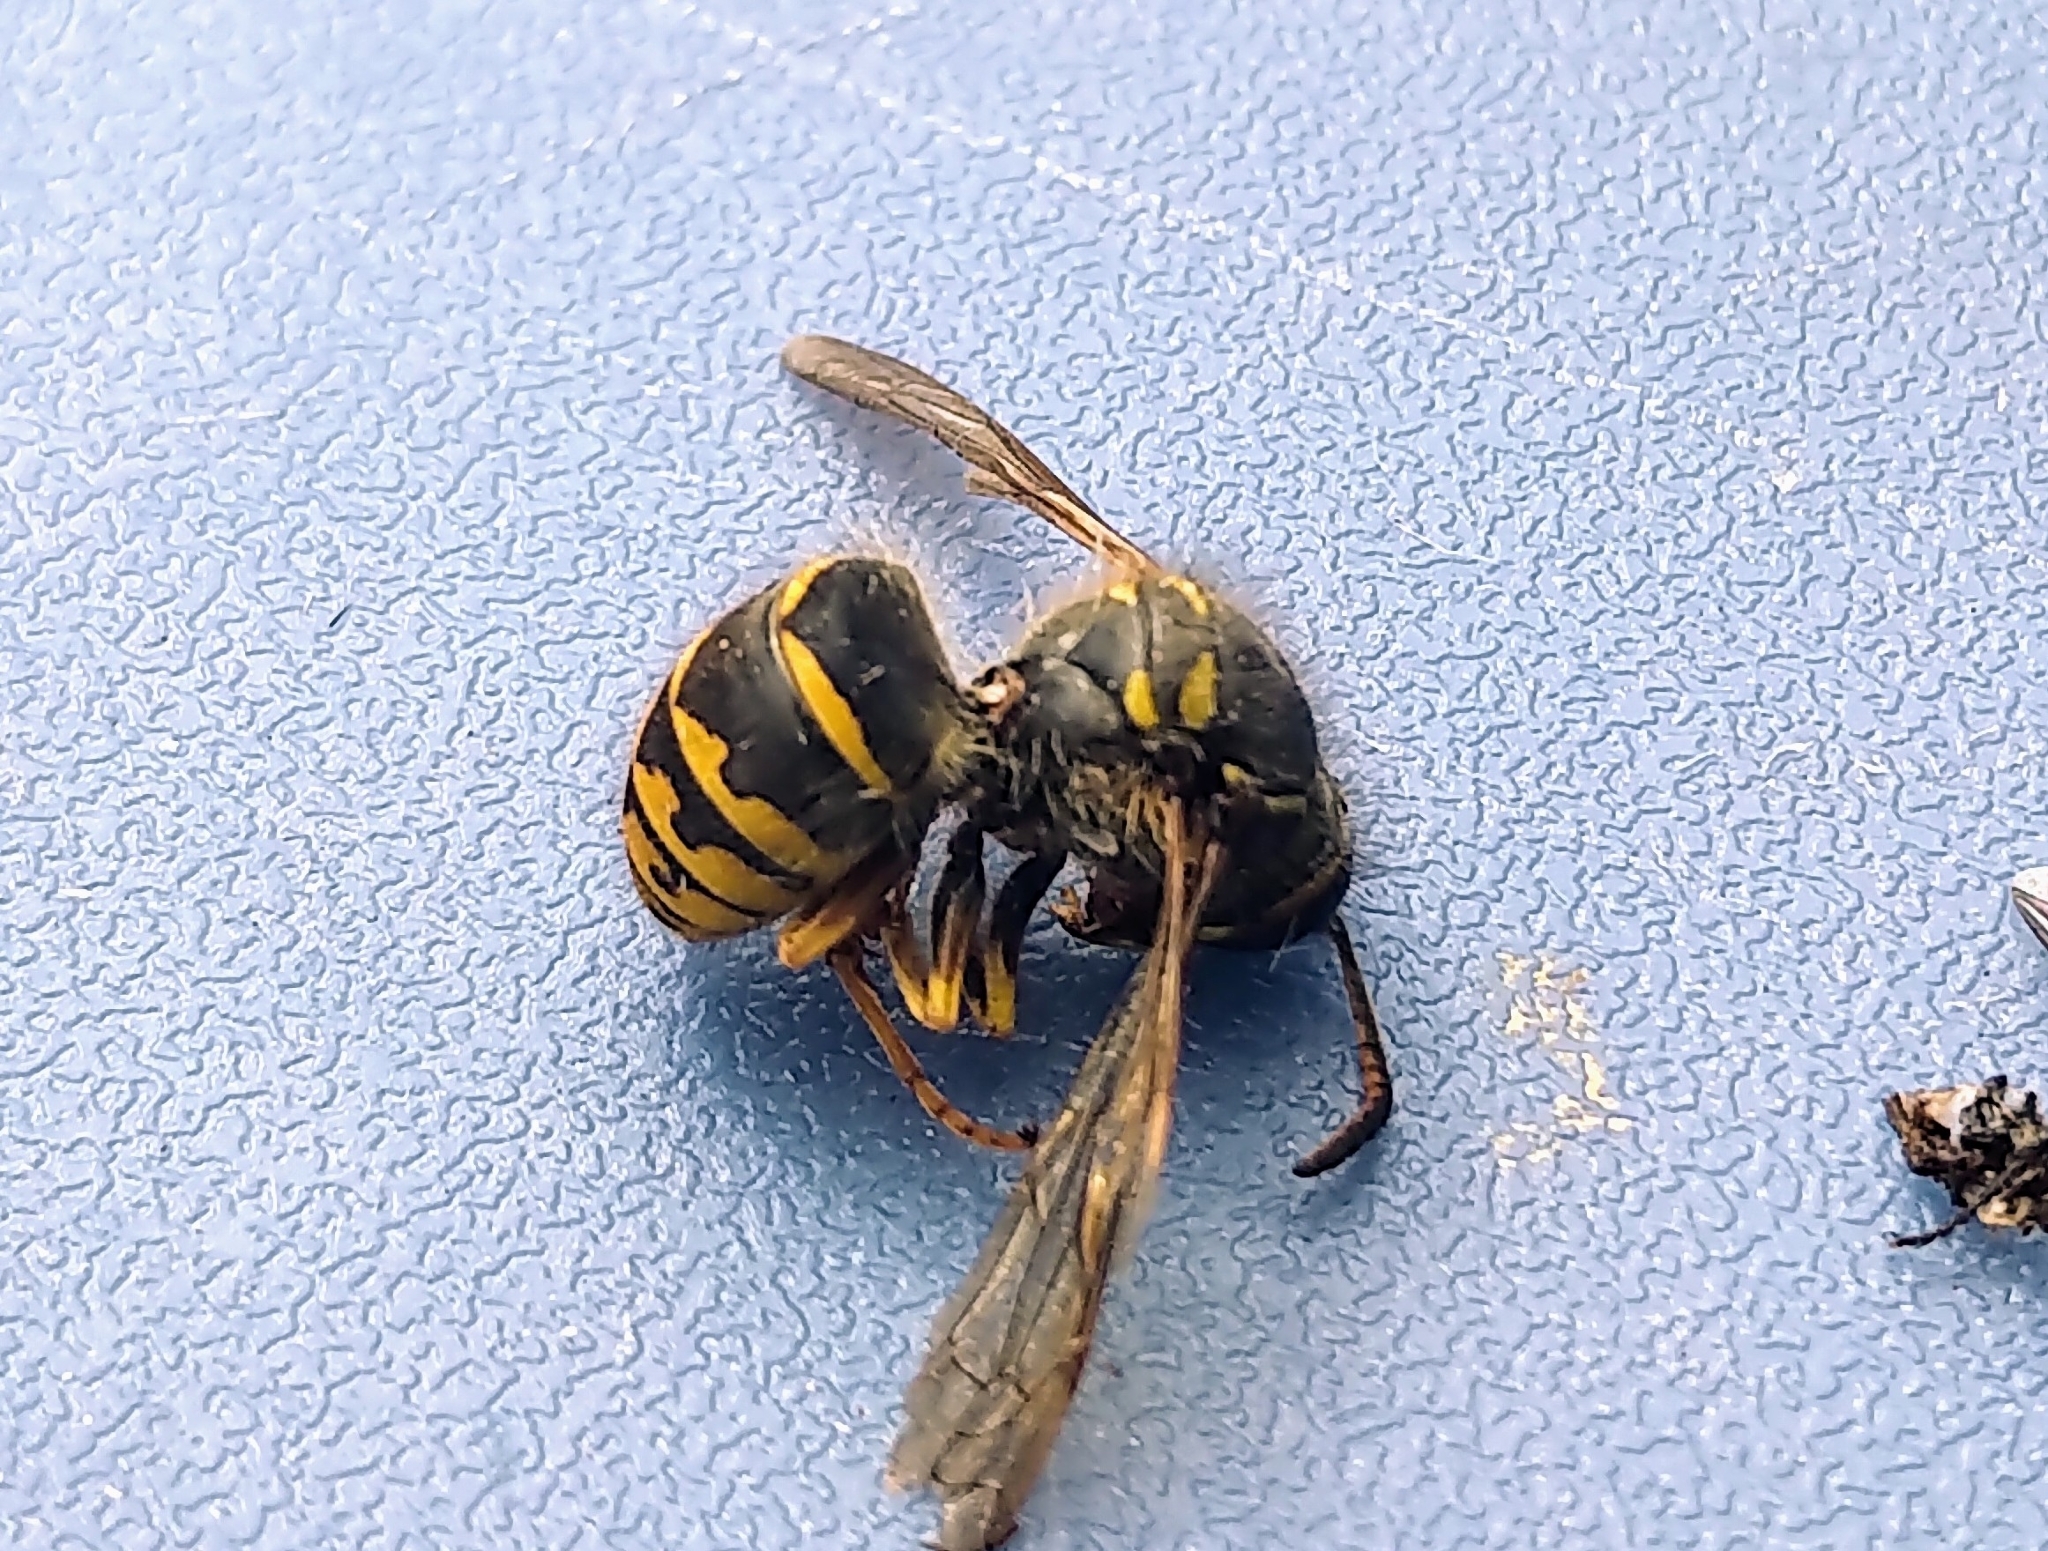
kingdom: Animalia
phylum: Arthropoda
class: Insecta
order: Hymenoptera
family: Vespidae
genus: Dolichovespula
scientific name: Dolichovespula arenaria
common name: Aerial yellowjacket
